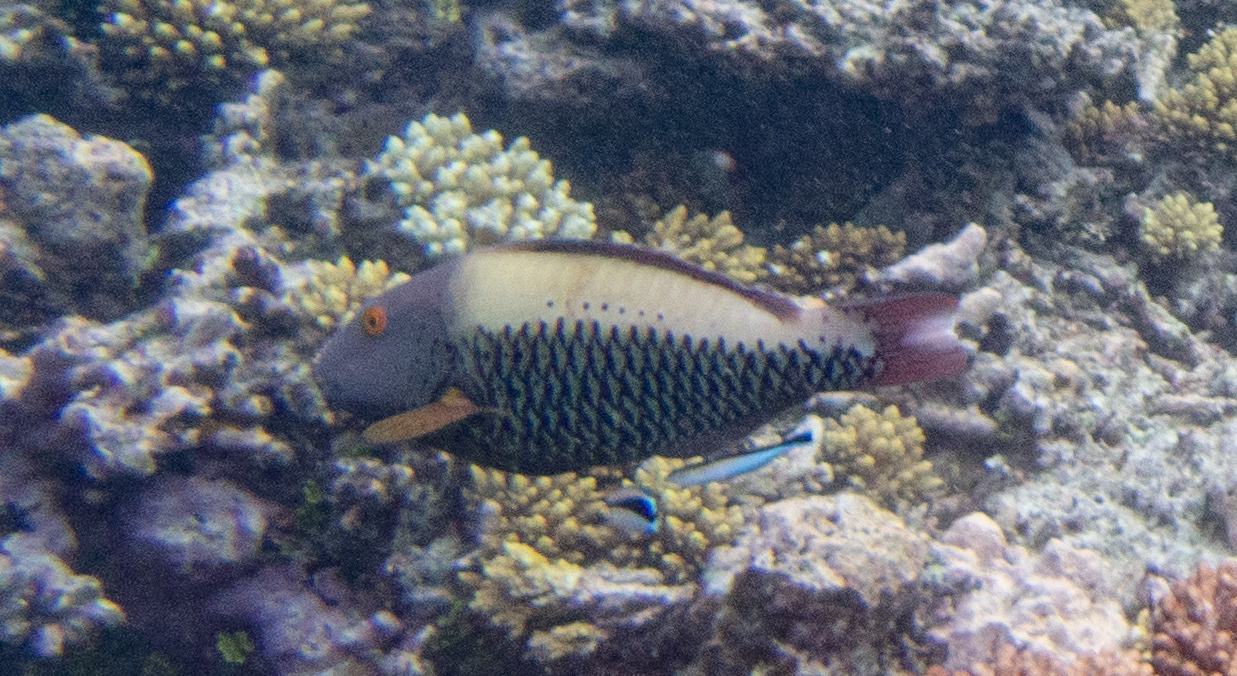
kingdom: Animalia
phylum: Chordata
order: Perciformes
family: Scaridae
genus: Cetoscarus
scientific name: Cetoscarus ocellatus
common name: Bicolor parrotfish
